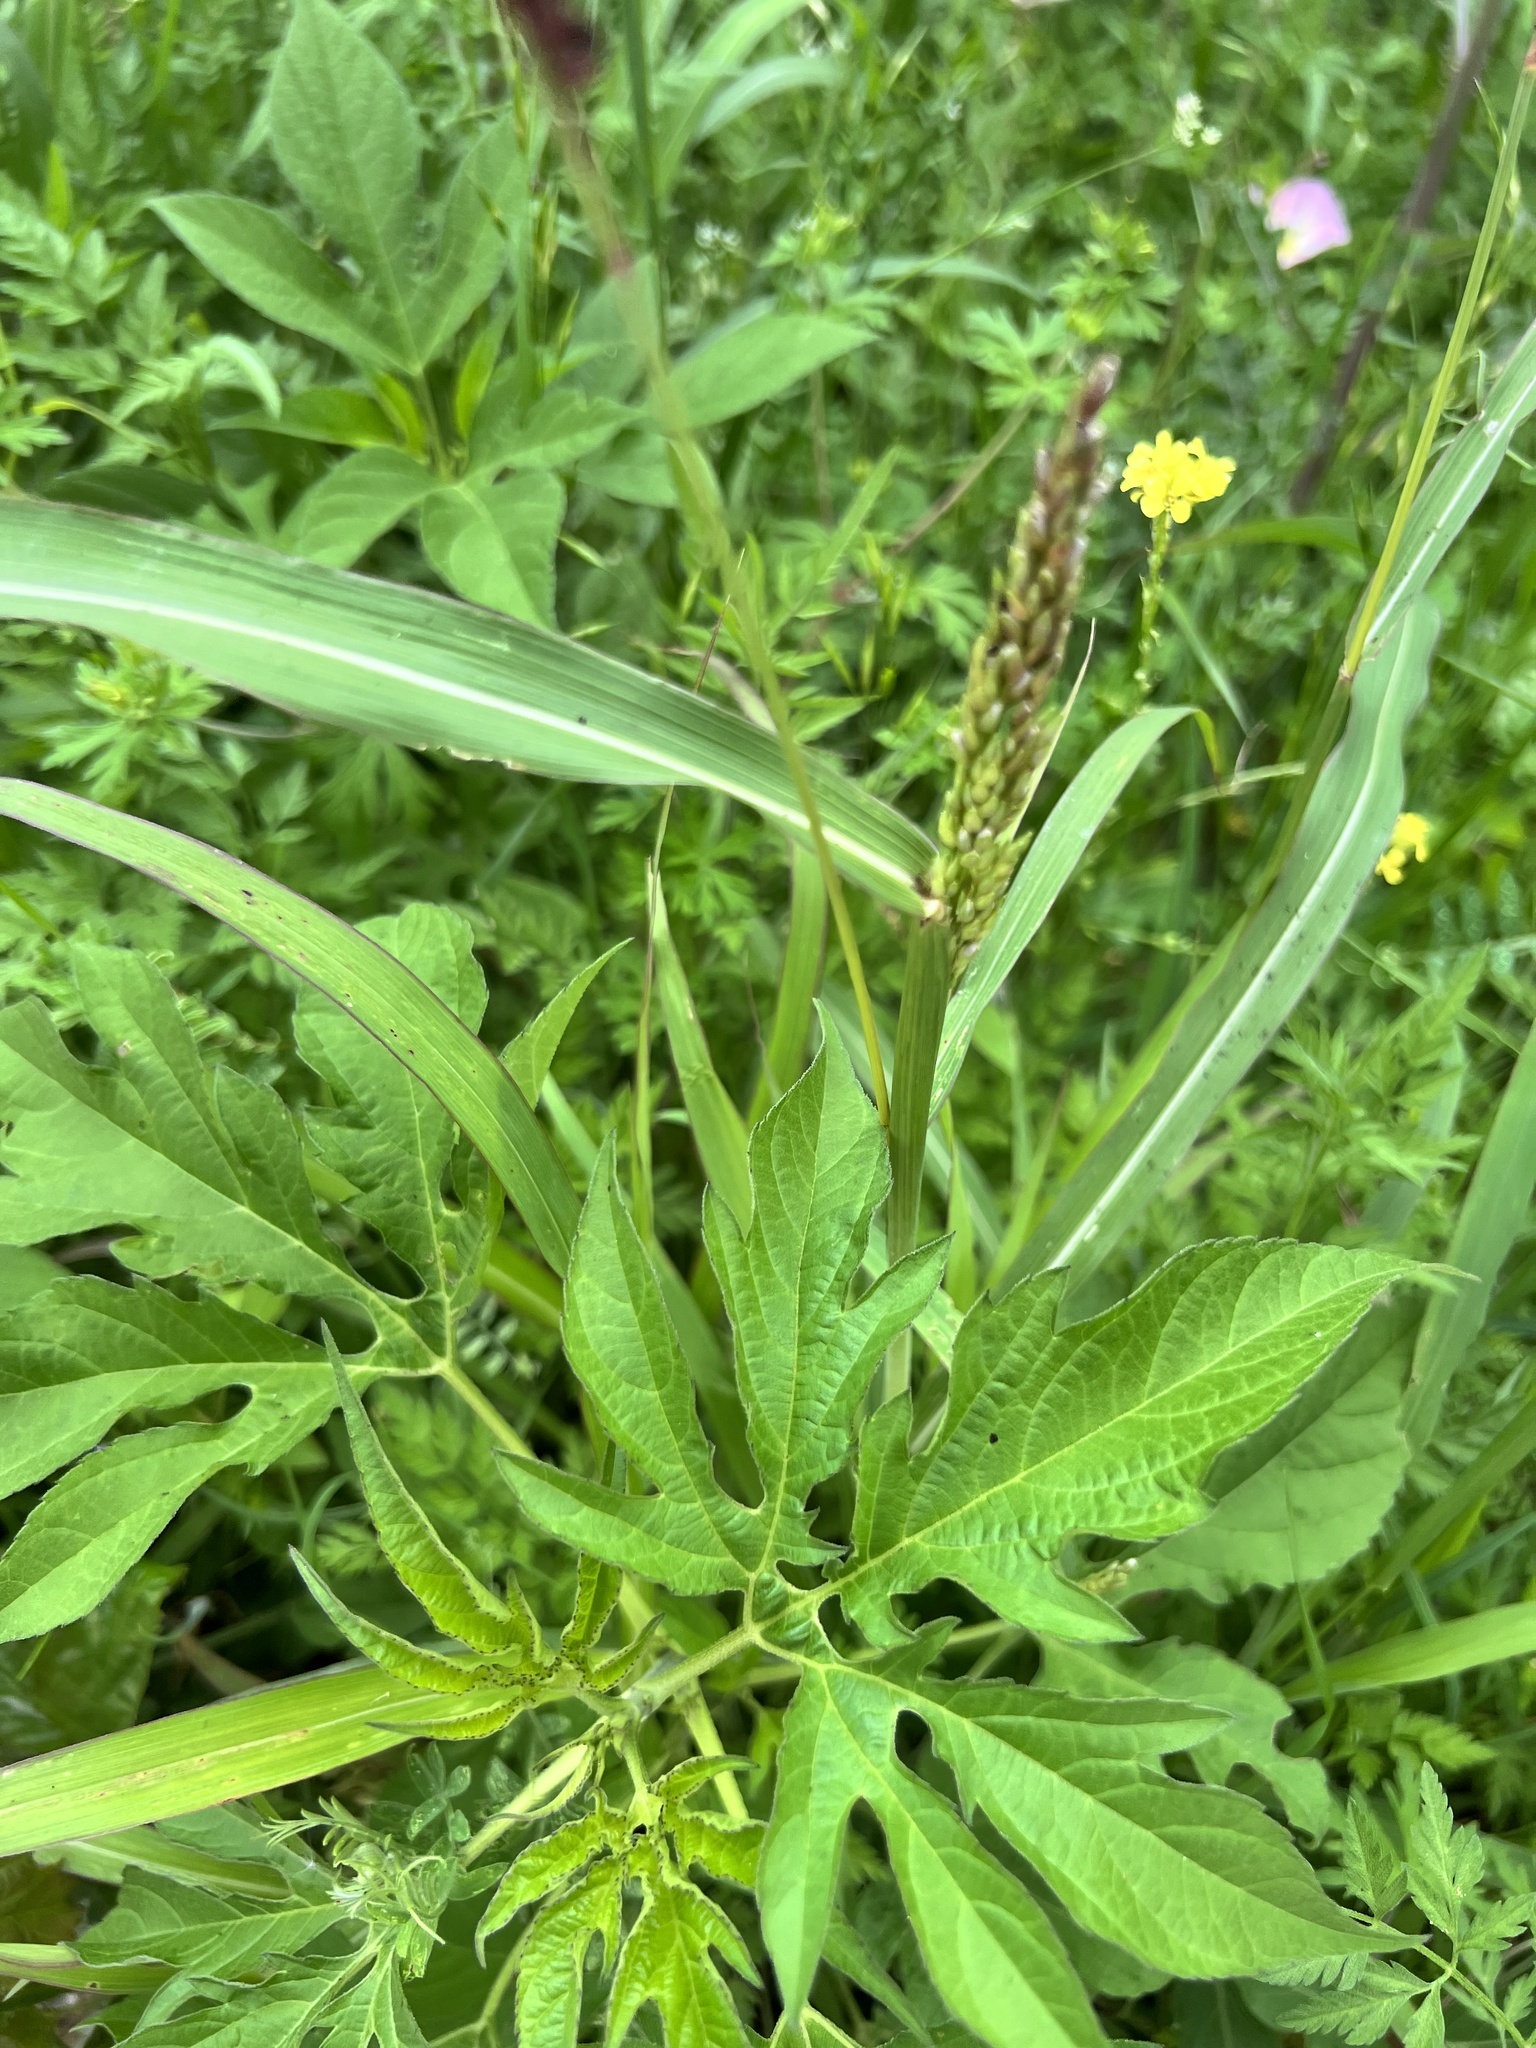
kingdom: Plantae
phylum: Tracheophyta
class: Liliopsida
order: Poales
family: Poaceae
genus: Sorghum
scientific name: Sorghum halepense
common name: Johnson-grass
